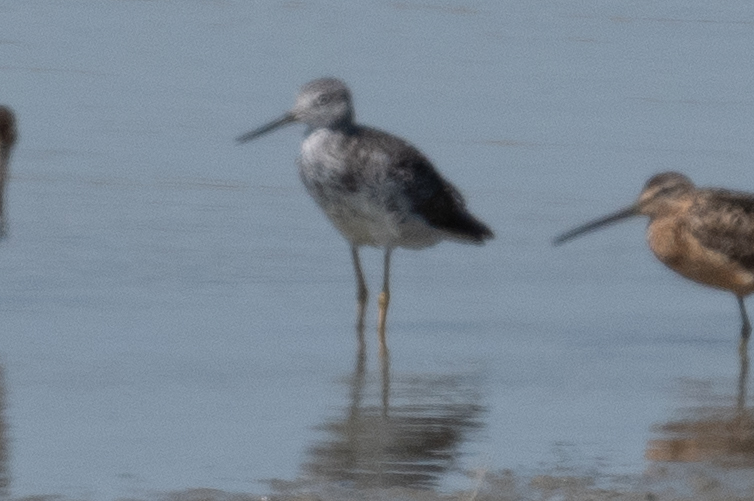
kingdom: Animalia
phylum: Chordata
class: Aves
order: Charadriiformes
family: Scolopacidae
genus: Tringa
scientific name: Tringa melanoleuca
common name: Greater yellowlegs
